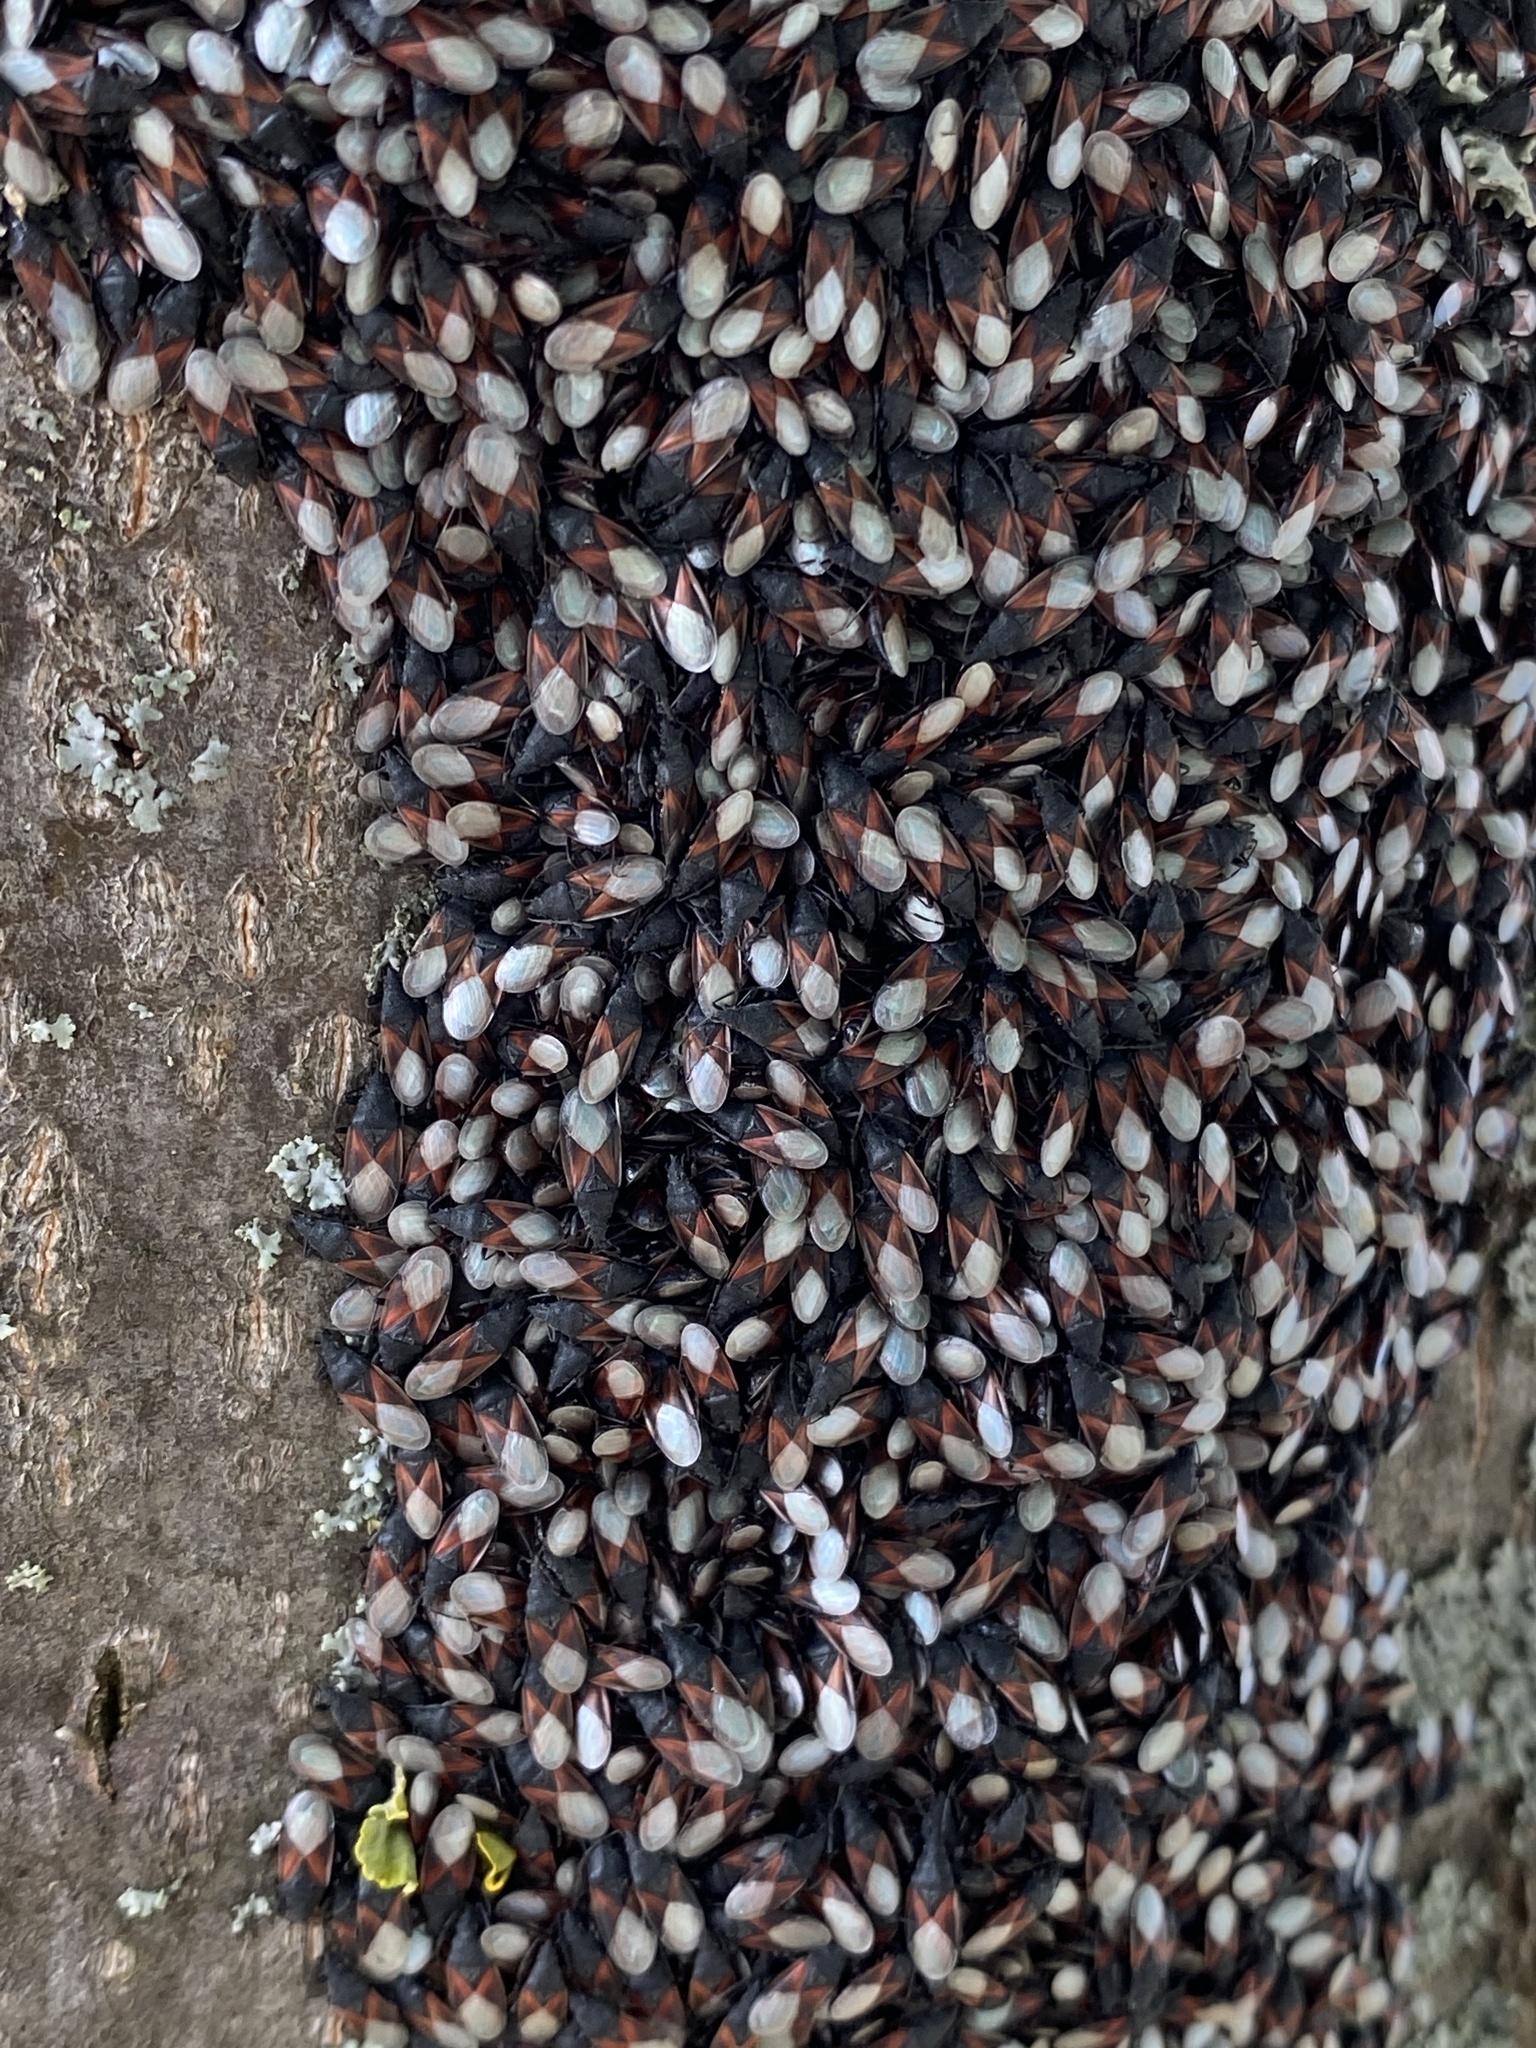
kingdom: Animalia
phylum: Arthropoda
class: Insecta
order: Hemiptera
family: Oxycarenidae
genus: Oxycarenus
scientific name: Oxycarenus lavaterae
